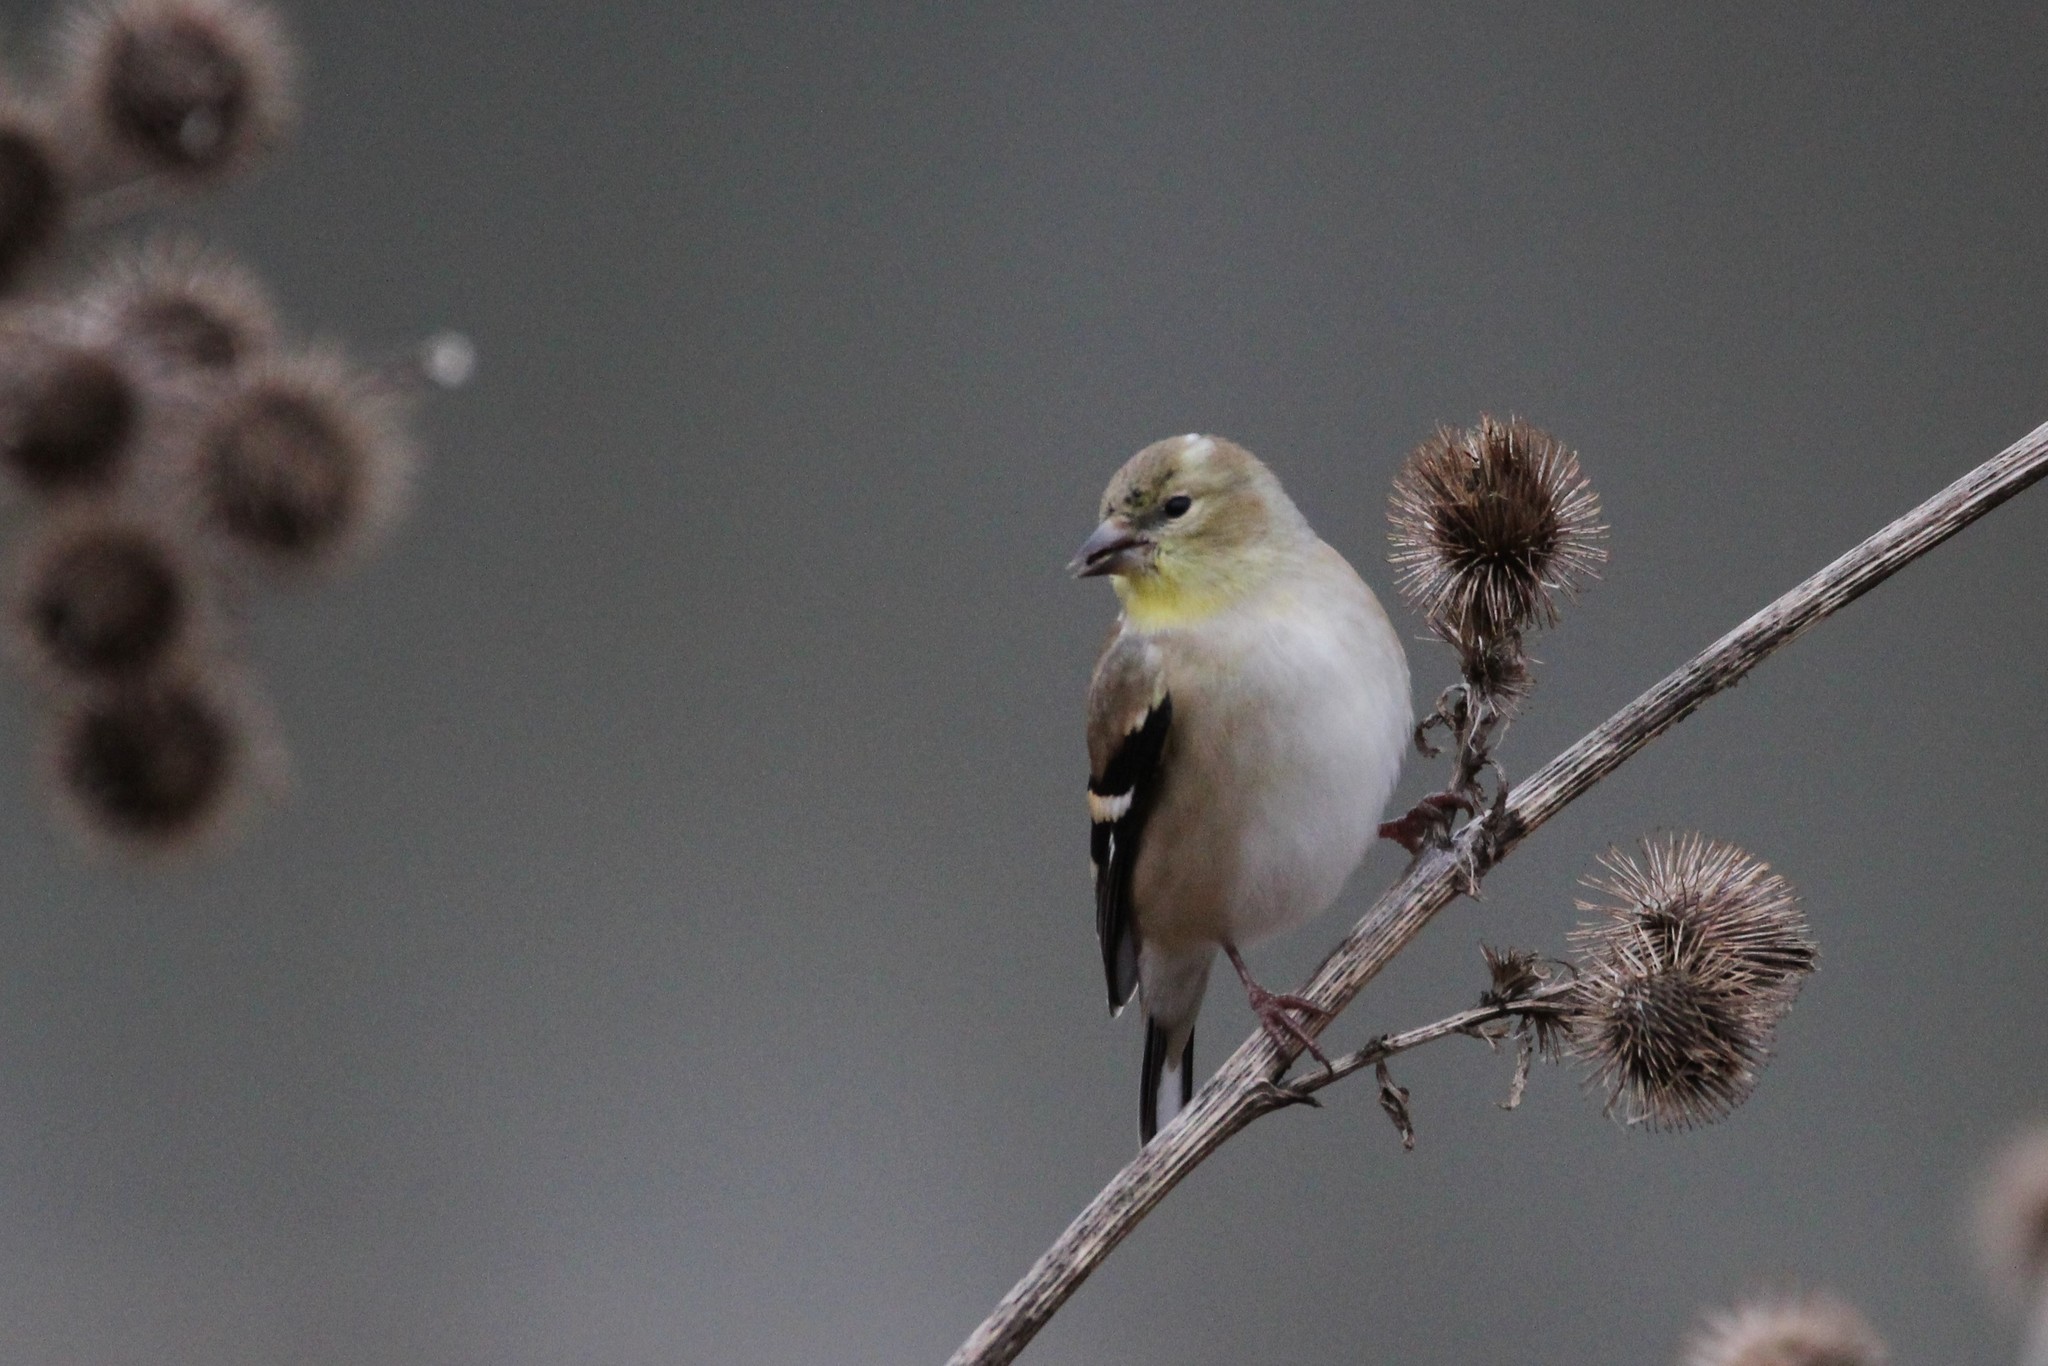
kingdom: Animalia
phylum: Chordata
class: Aves
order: Passeriformes
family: Fringillidae
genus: Spinus
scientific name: Spinus tristis
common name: American goldfinch
